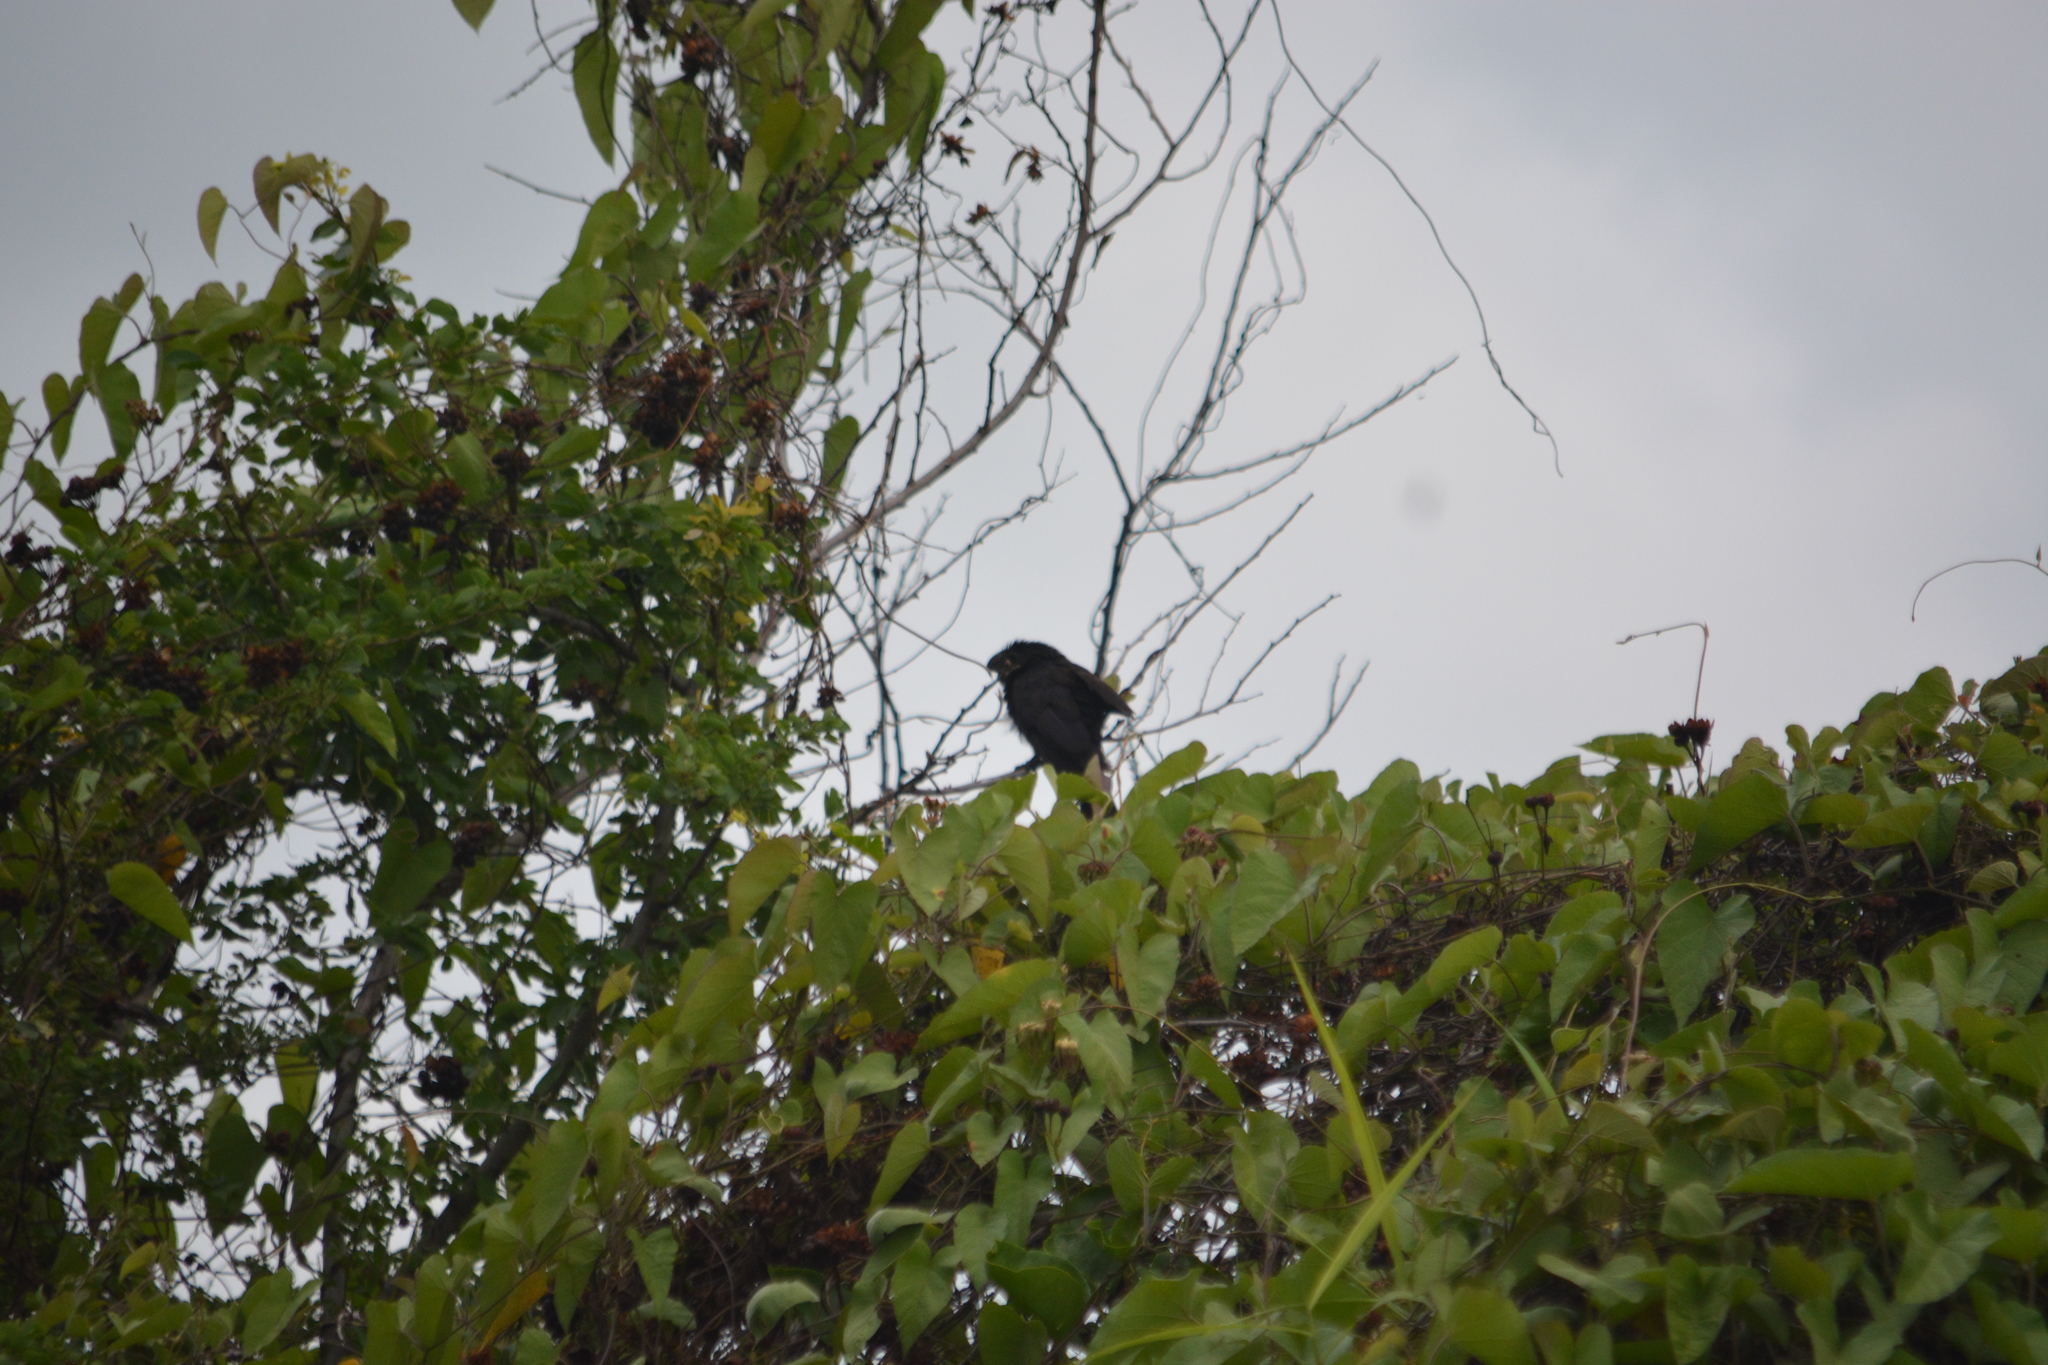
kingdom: Animalia
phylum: Chordata
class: Aves
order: Cuculiformes
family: Cuculidae
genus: Crotophaga
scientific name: Crotophaga sulcirostris
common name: Groove-billed ani
